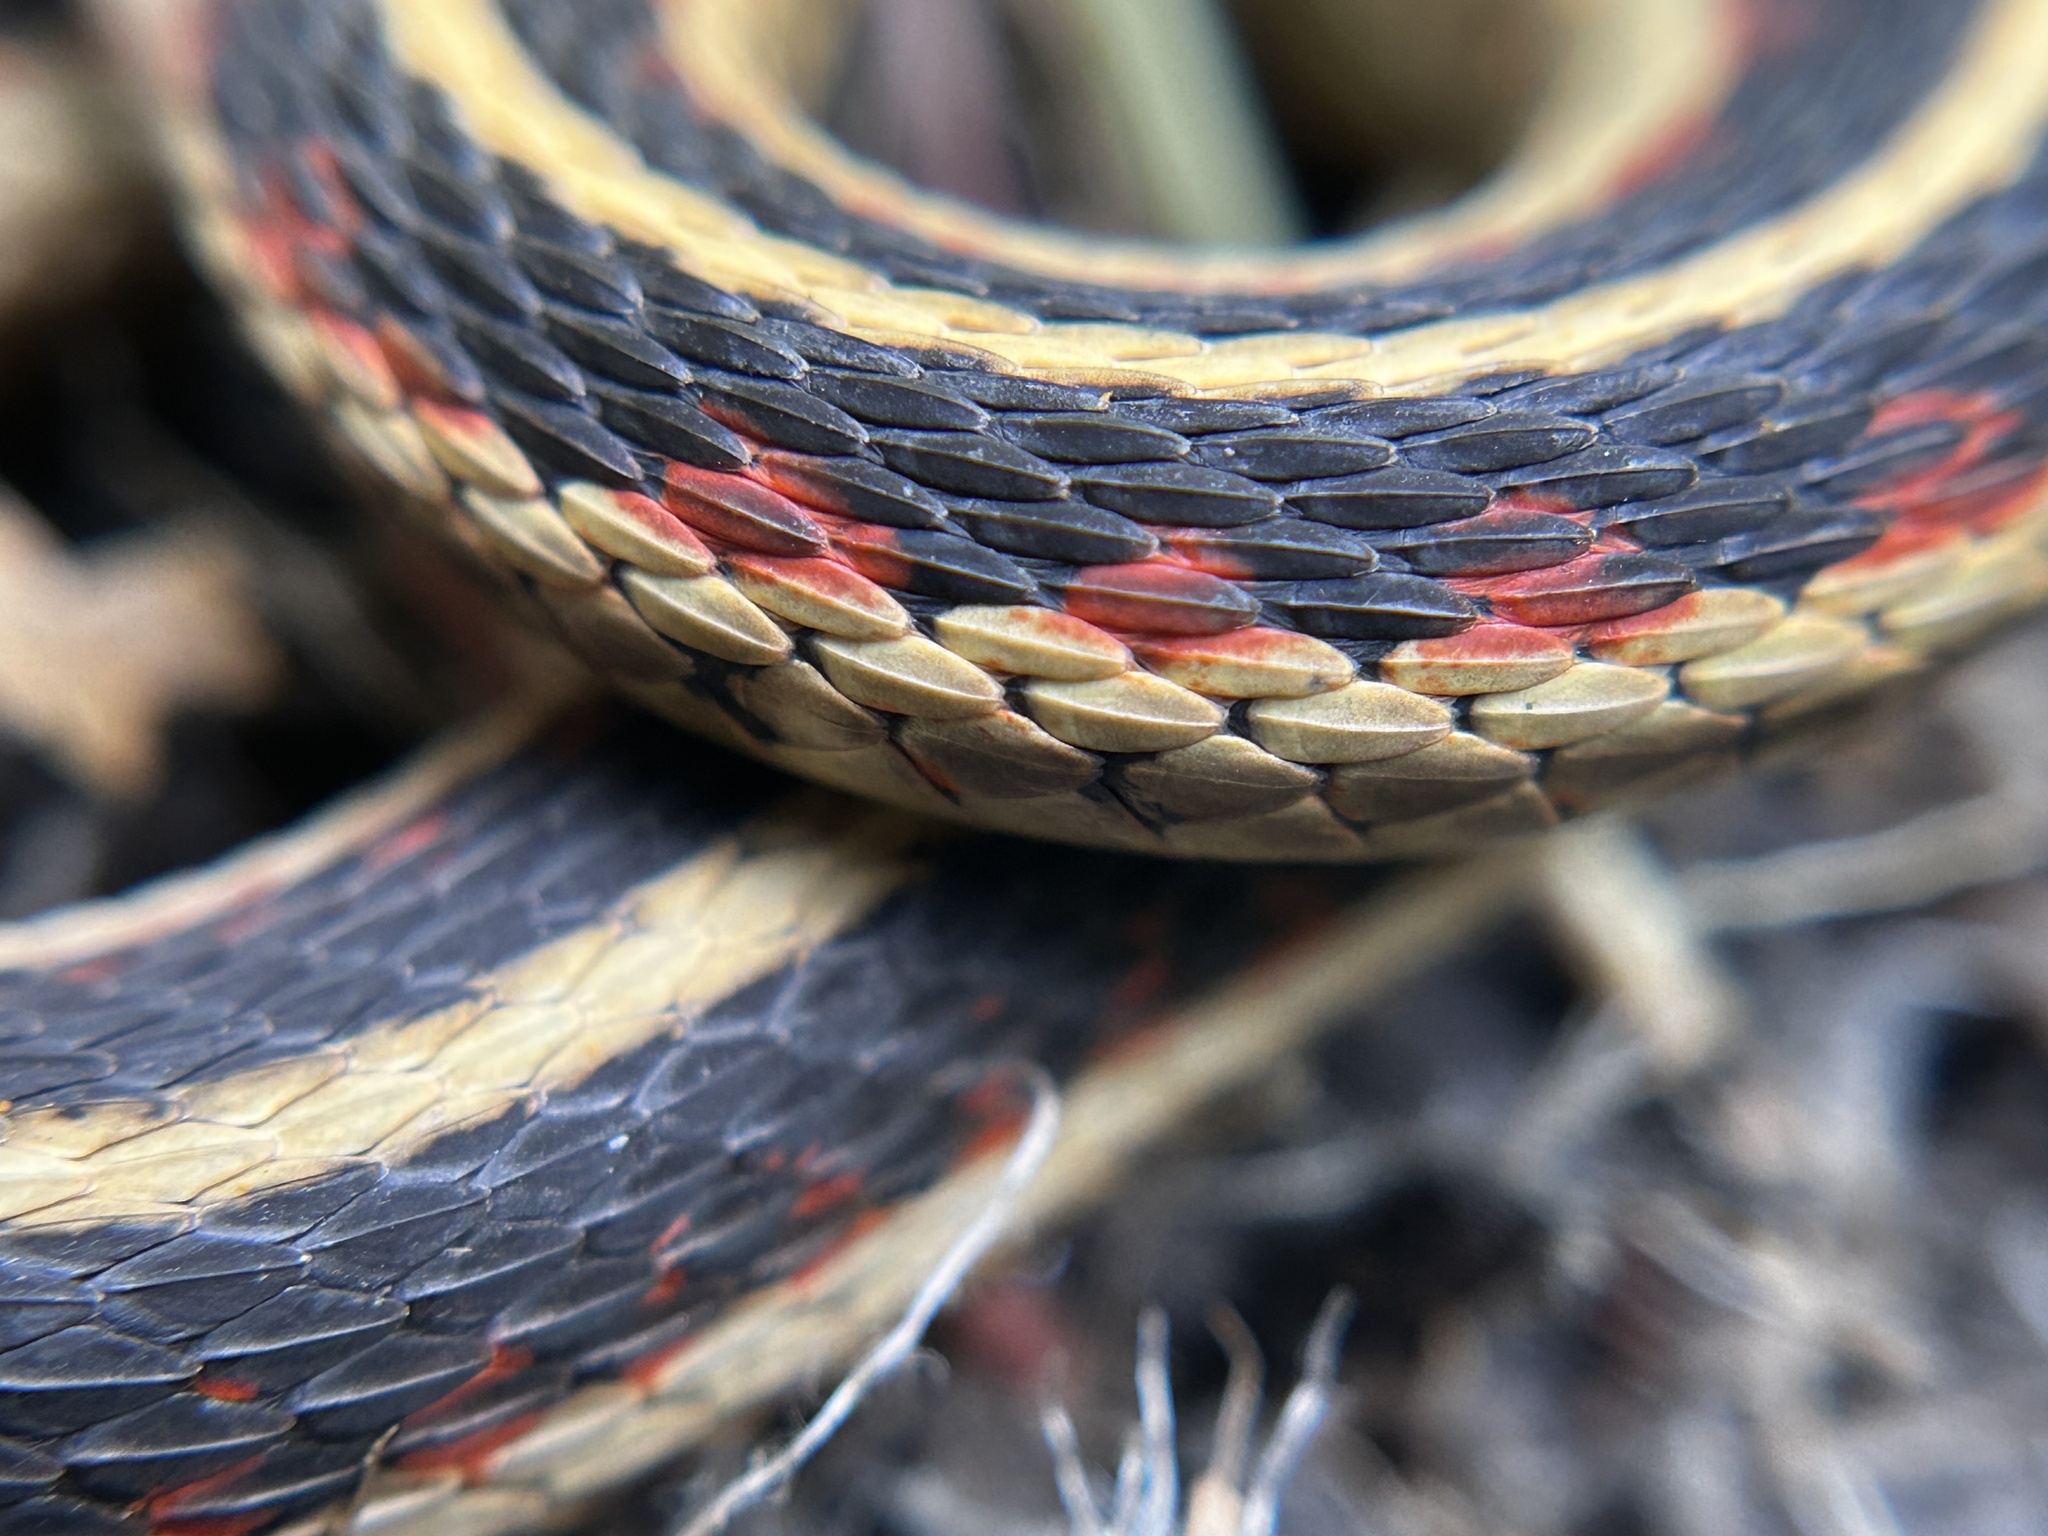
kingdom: Animalia
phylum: Chordata
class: Squamata
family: Colubridae
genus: Thamnophis
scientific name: Thamnophis sirtalis
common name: Common garter snake
